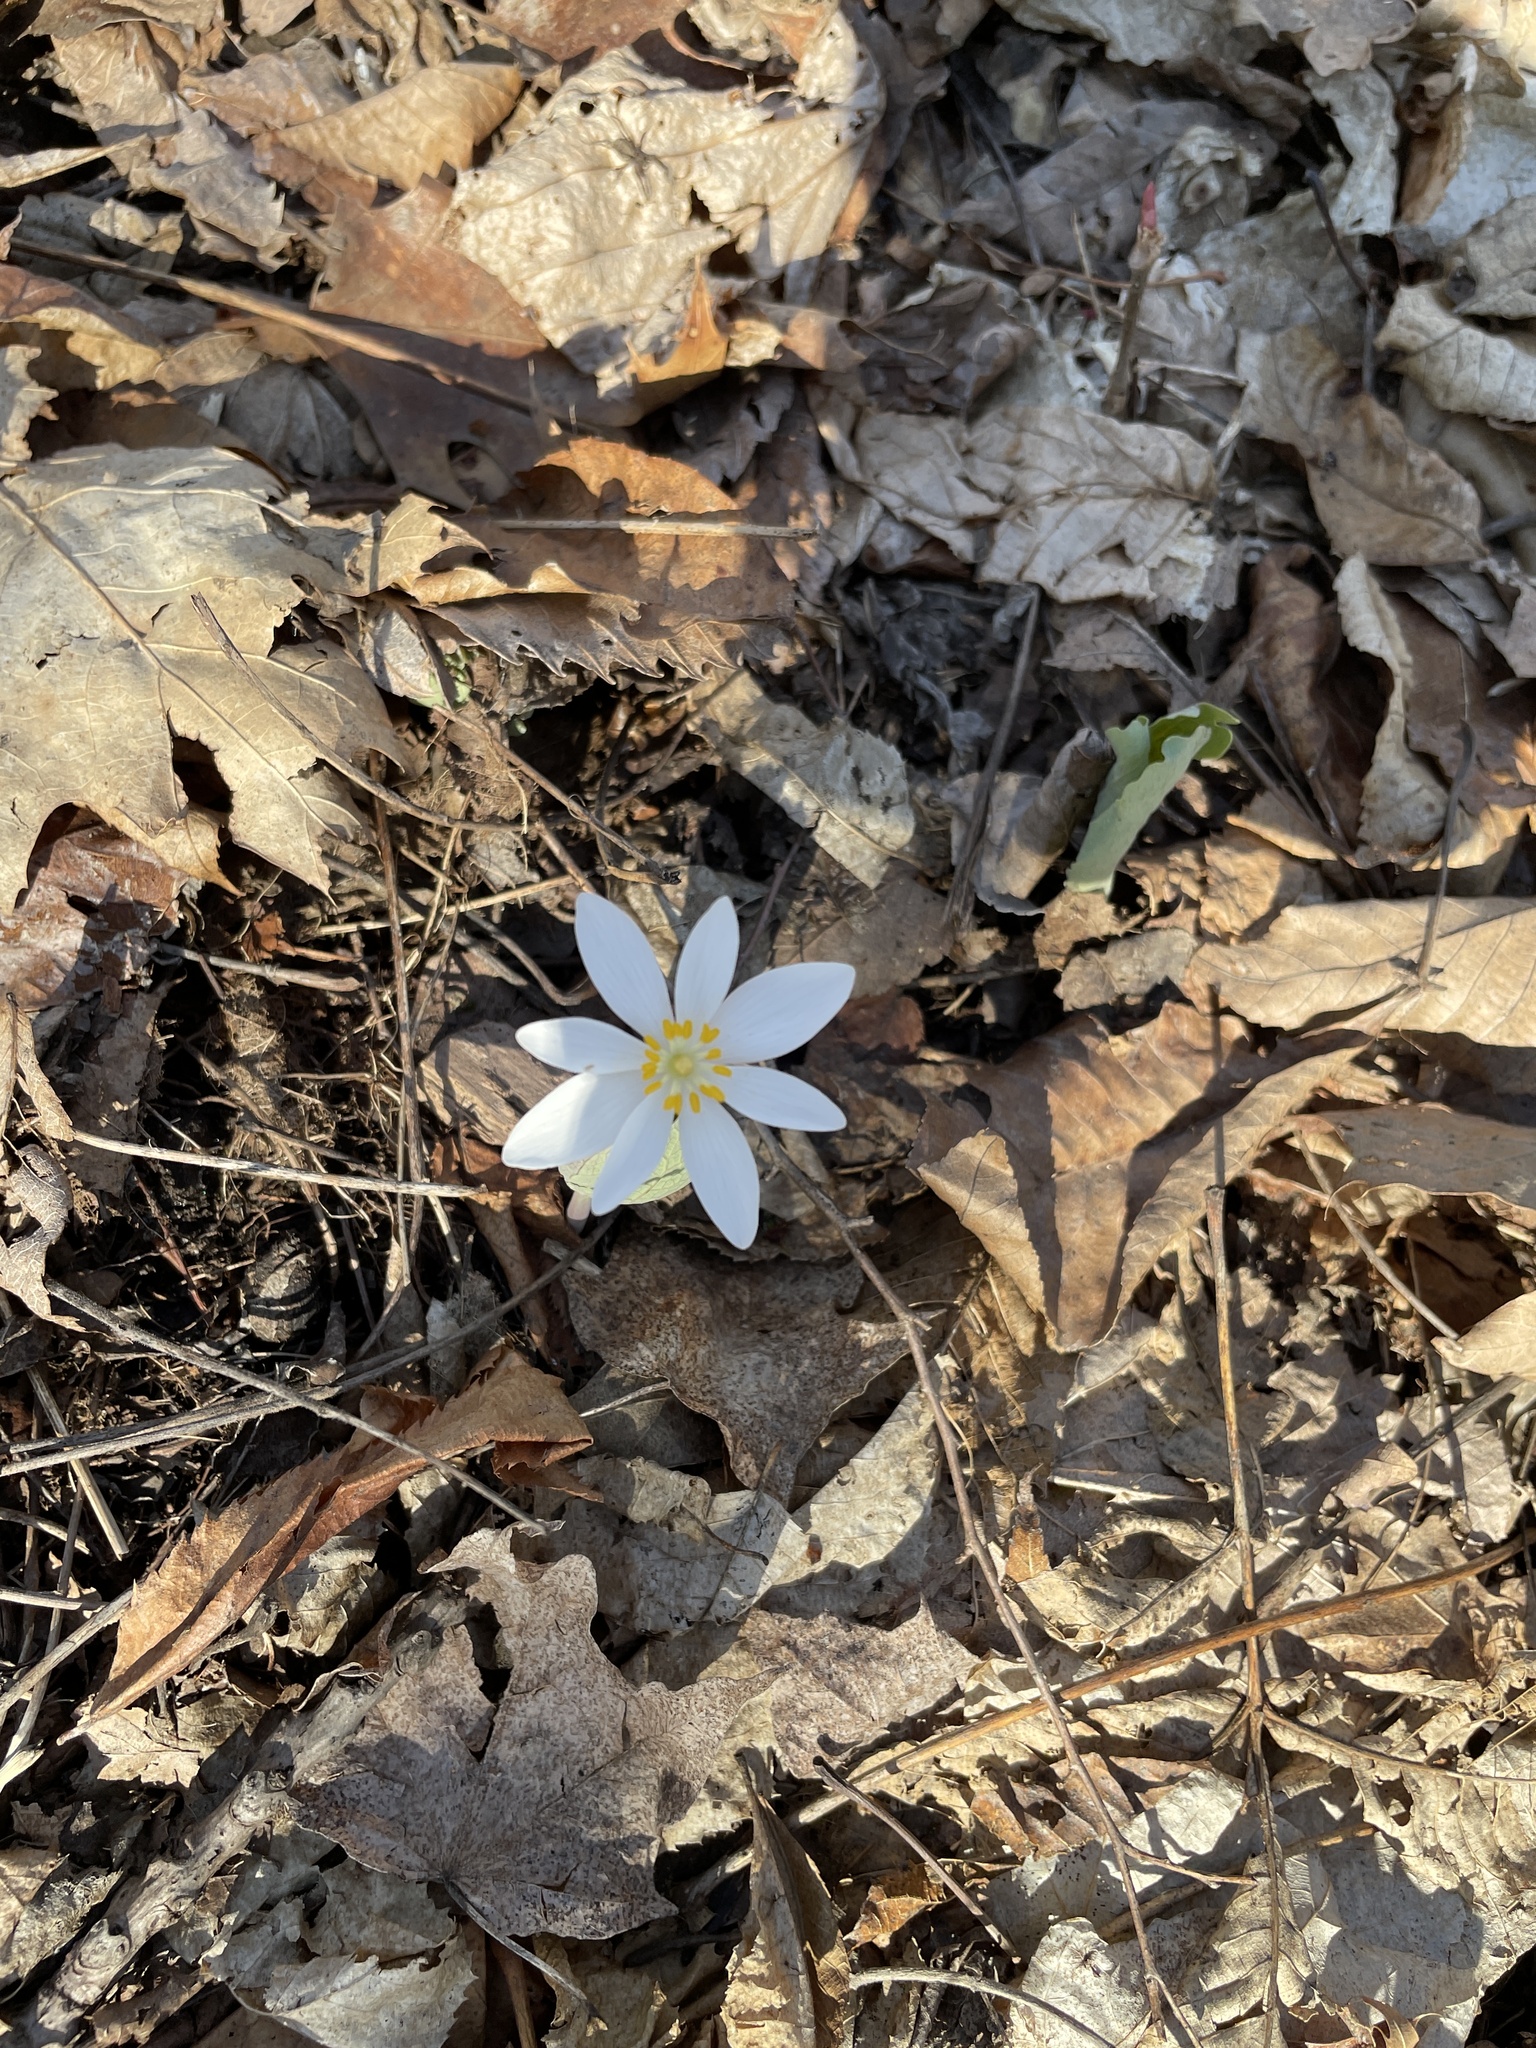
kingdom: Plantae
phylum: Tracheophyta
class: Magnoliopsida
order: Ranunculales
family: Papaveraceae
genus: Sanguinaria
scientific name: Sanguinaria canadensis
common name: Bloodroot
